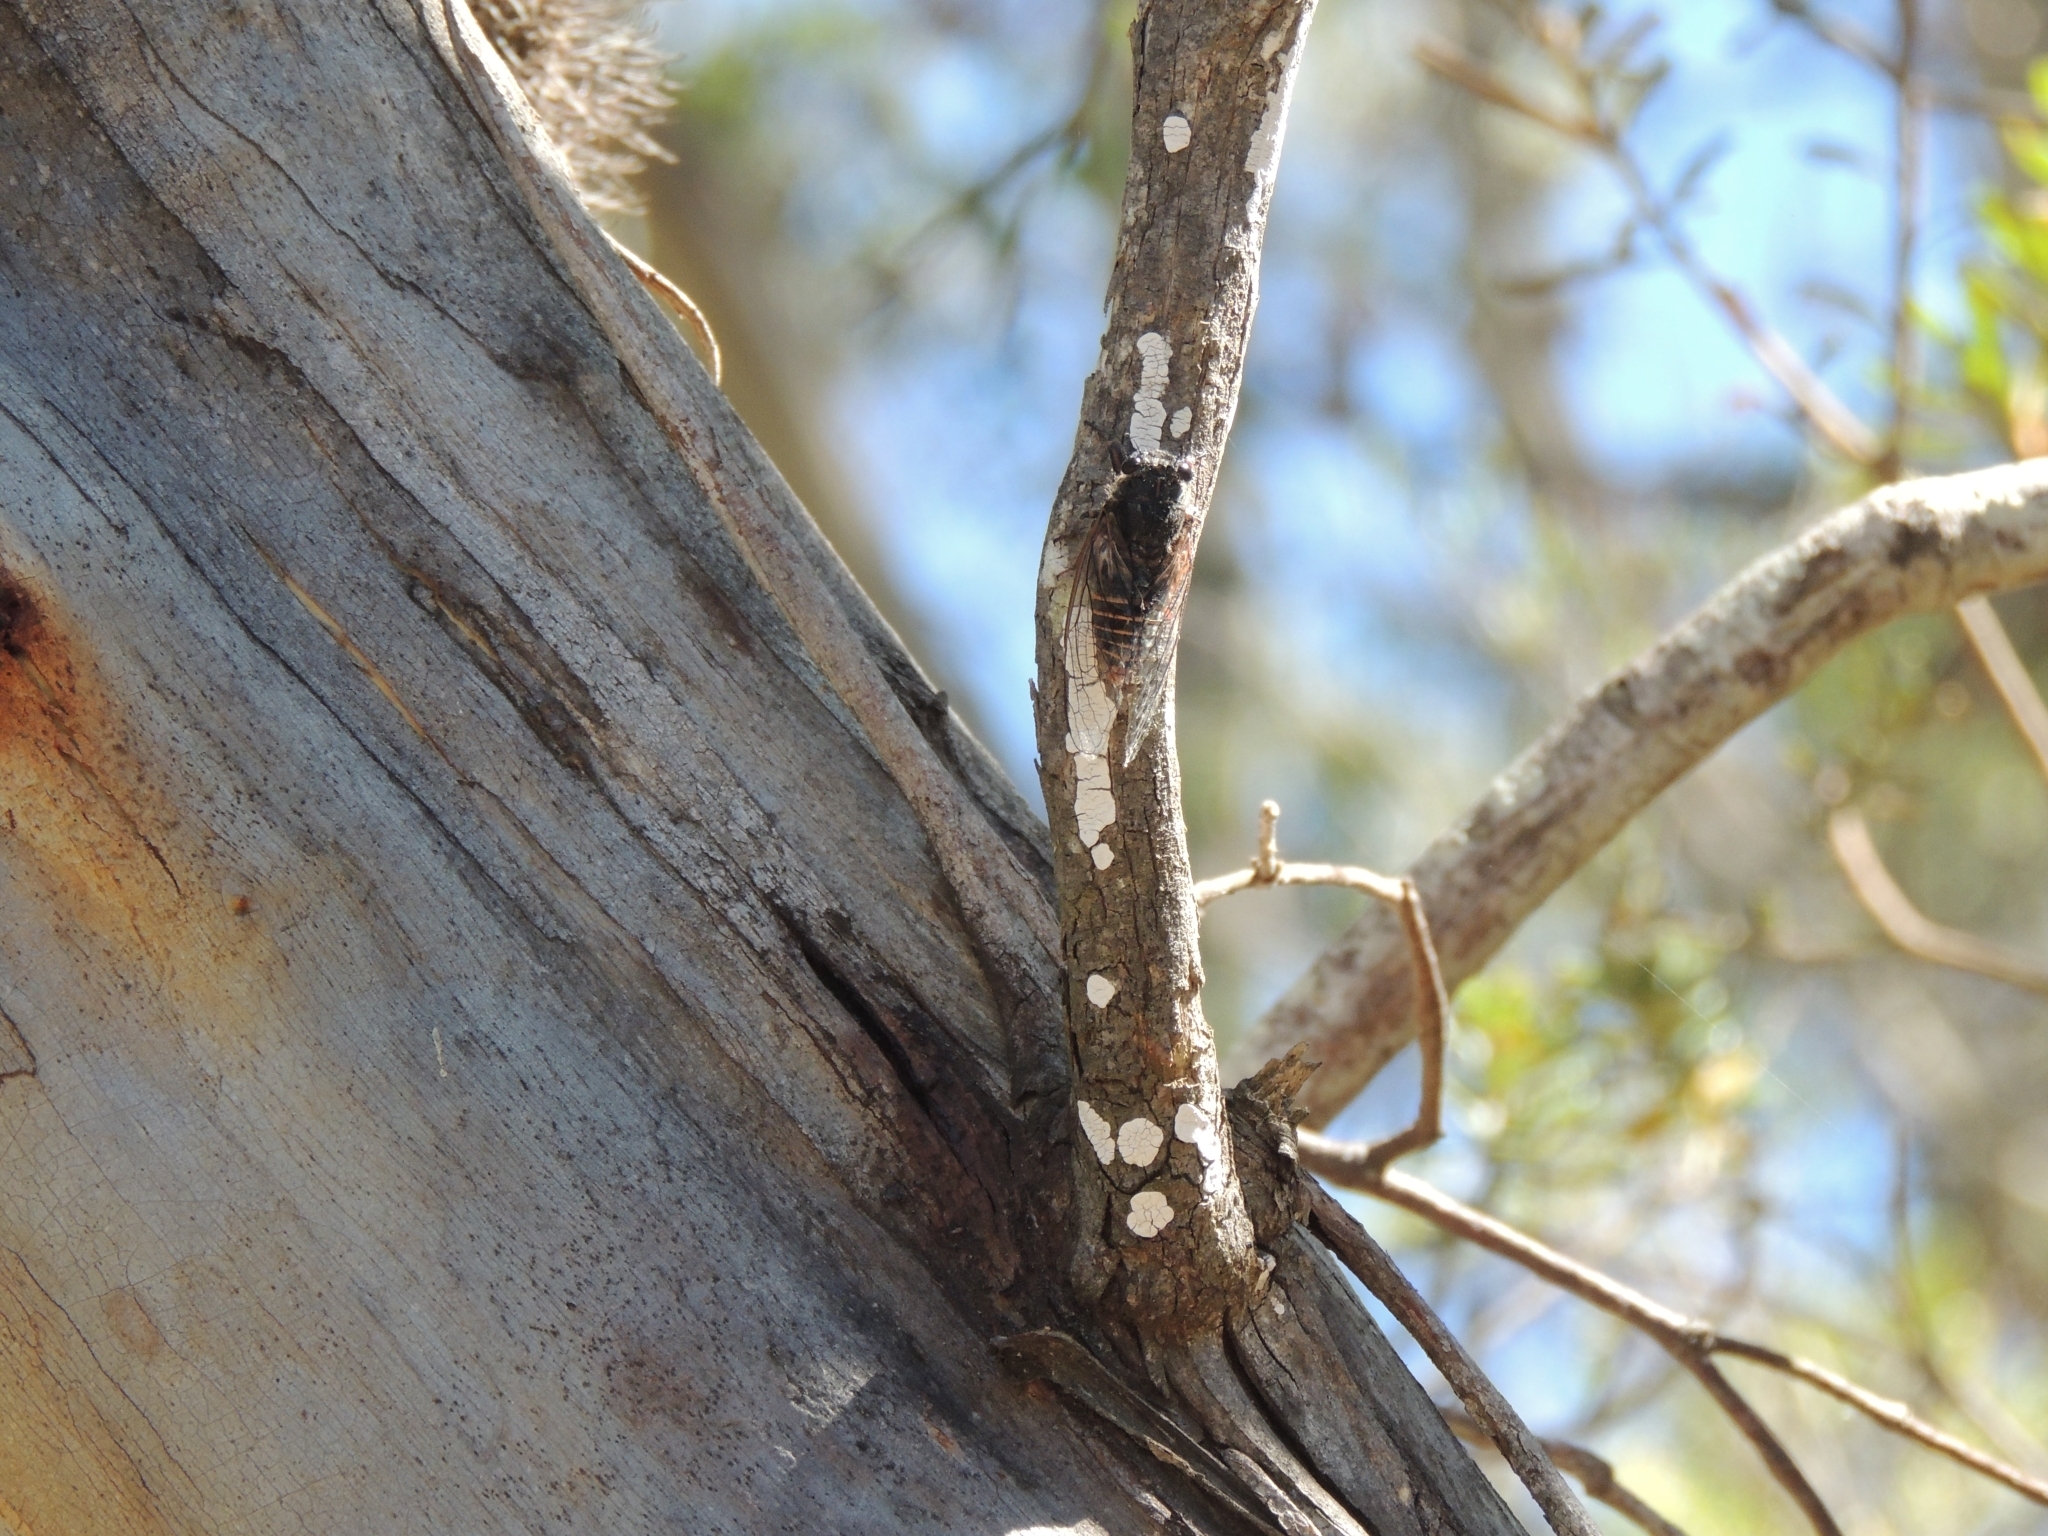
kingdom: Animalia
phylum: Arthropoda
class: Insecta
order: Hemiptera
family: Cicadidae
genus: Pauropsalta
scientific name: Pauropsalta mneme
